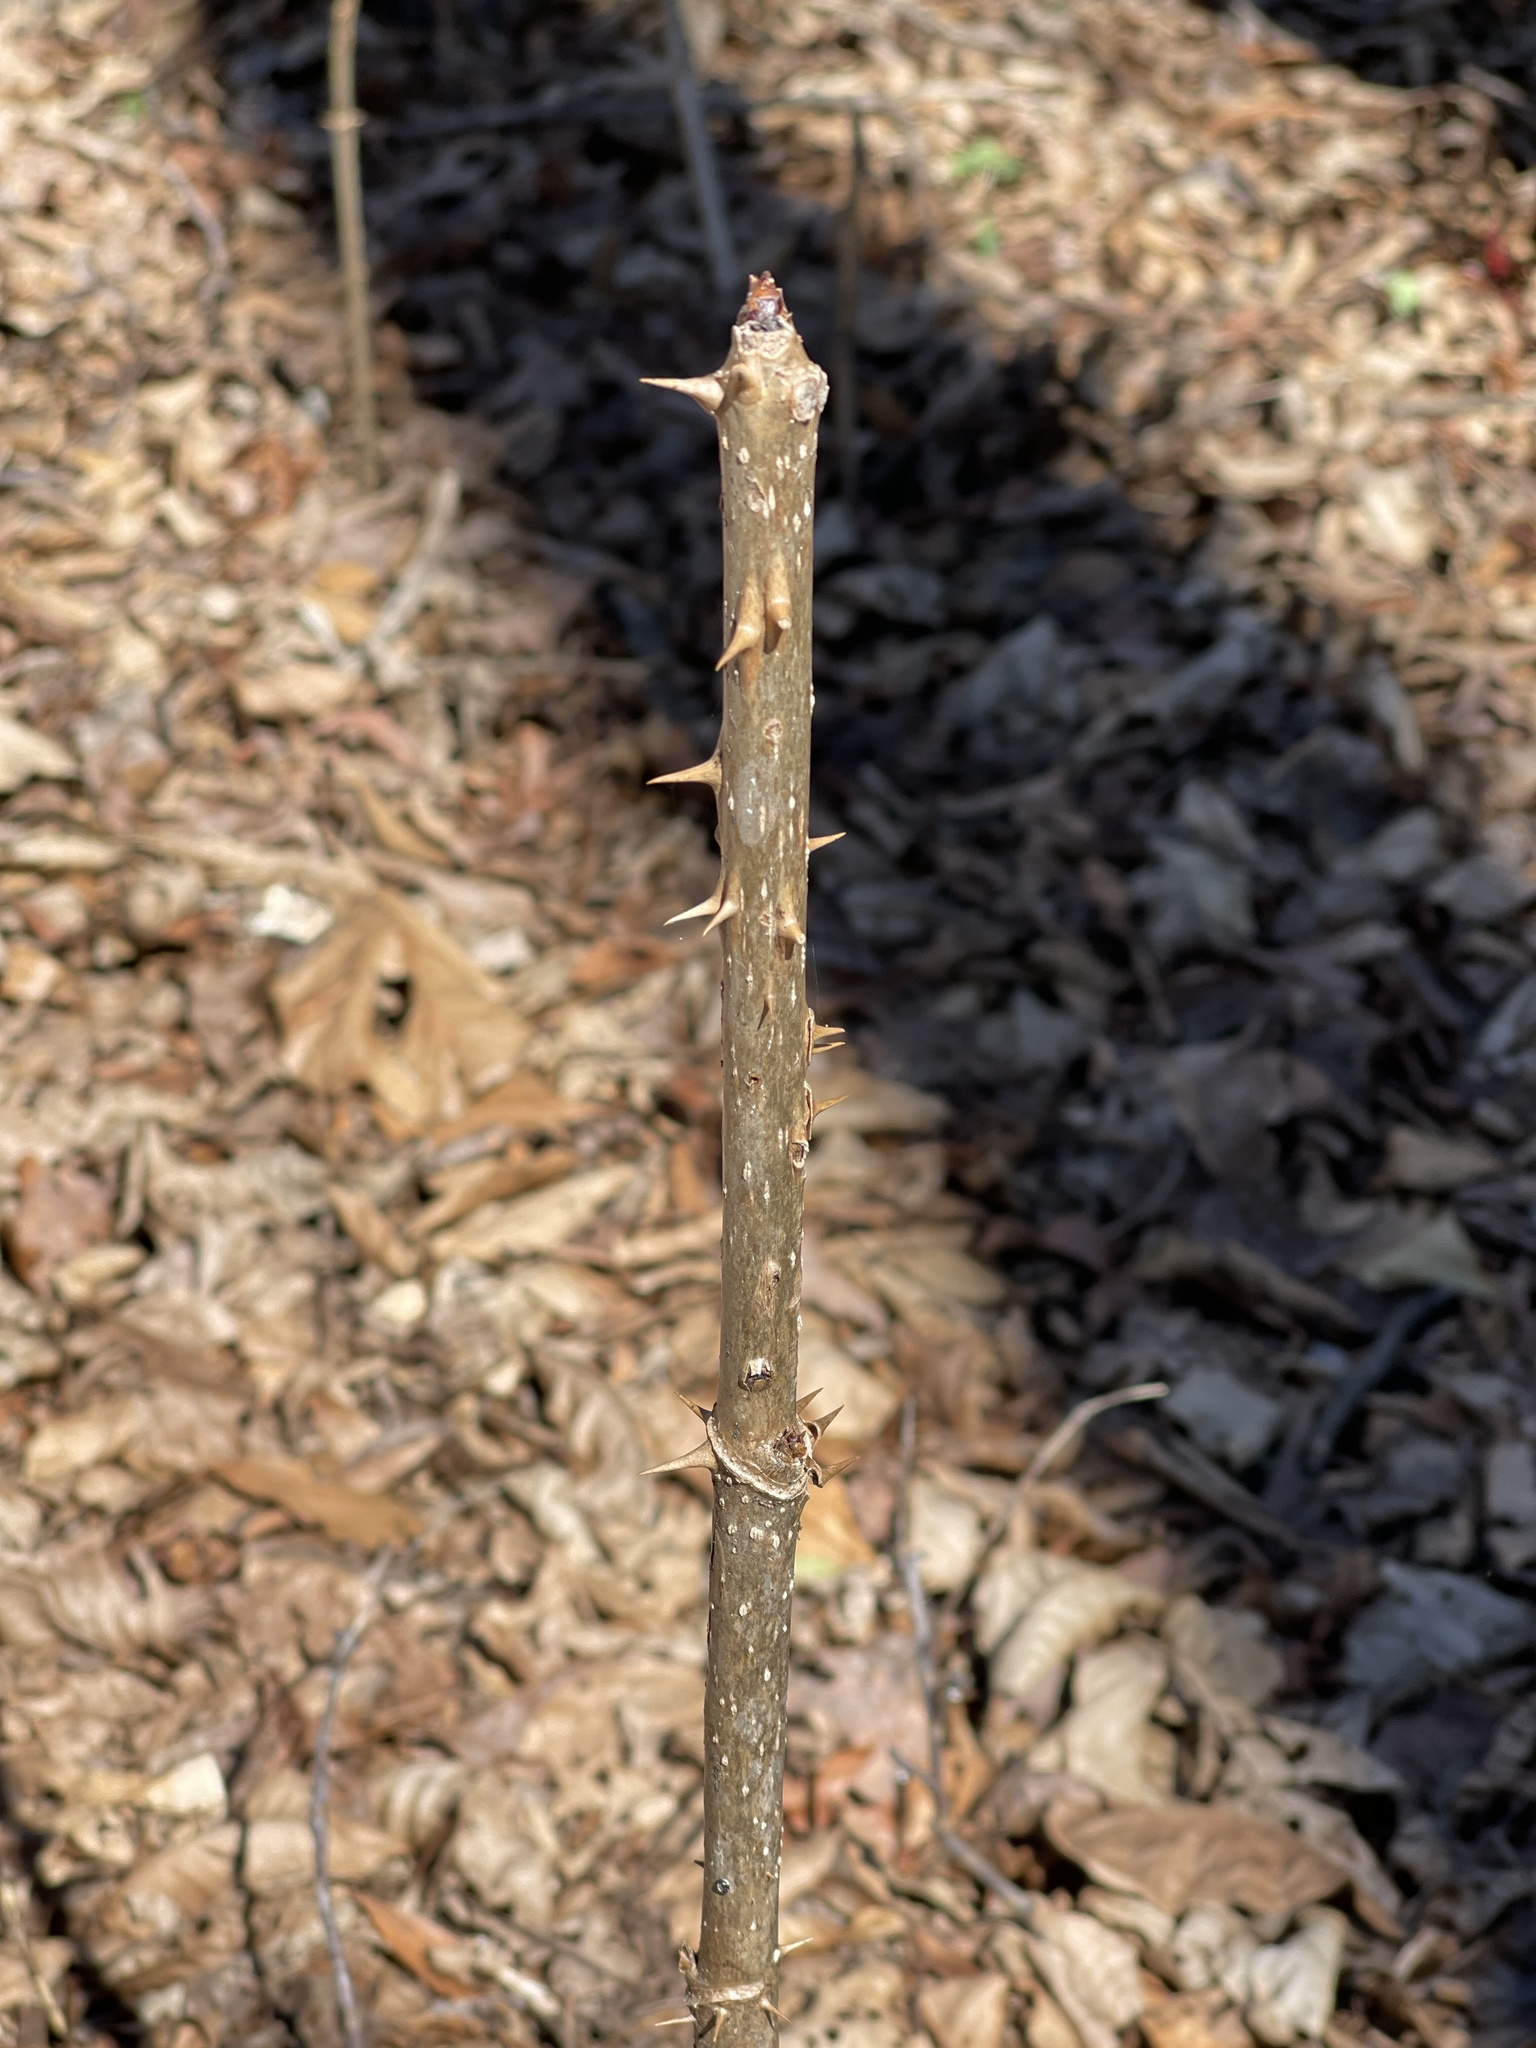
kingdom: Plantae
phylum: Tracheophyta
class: Magnoliopsida
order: Apiales
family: Araliaceae
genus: Aralia
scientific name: Aralia spinosa
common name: Hercules'-club
